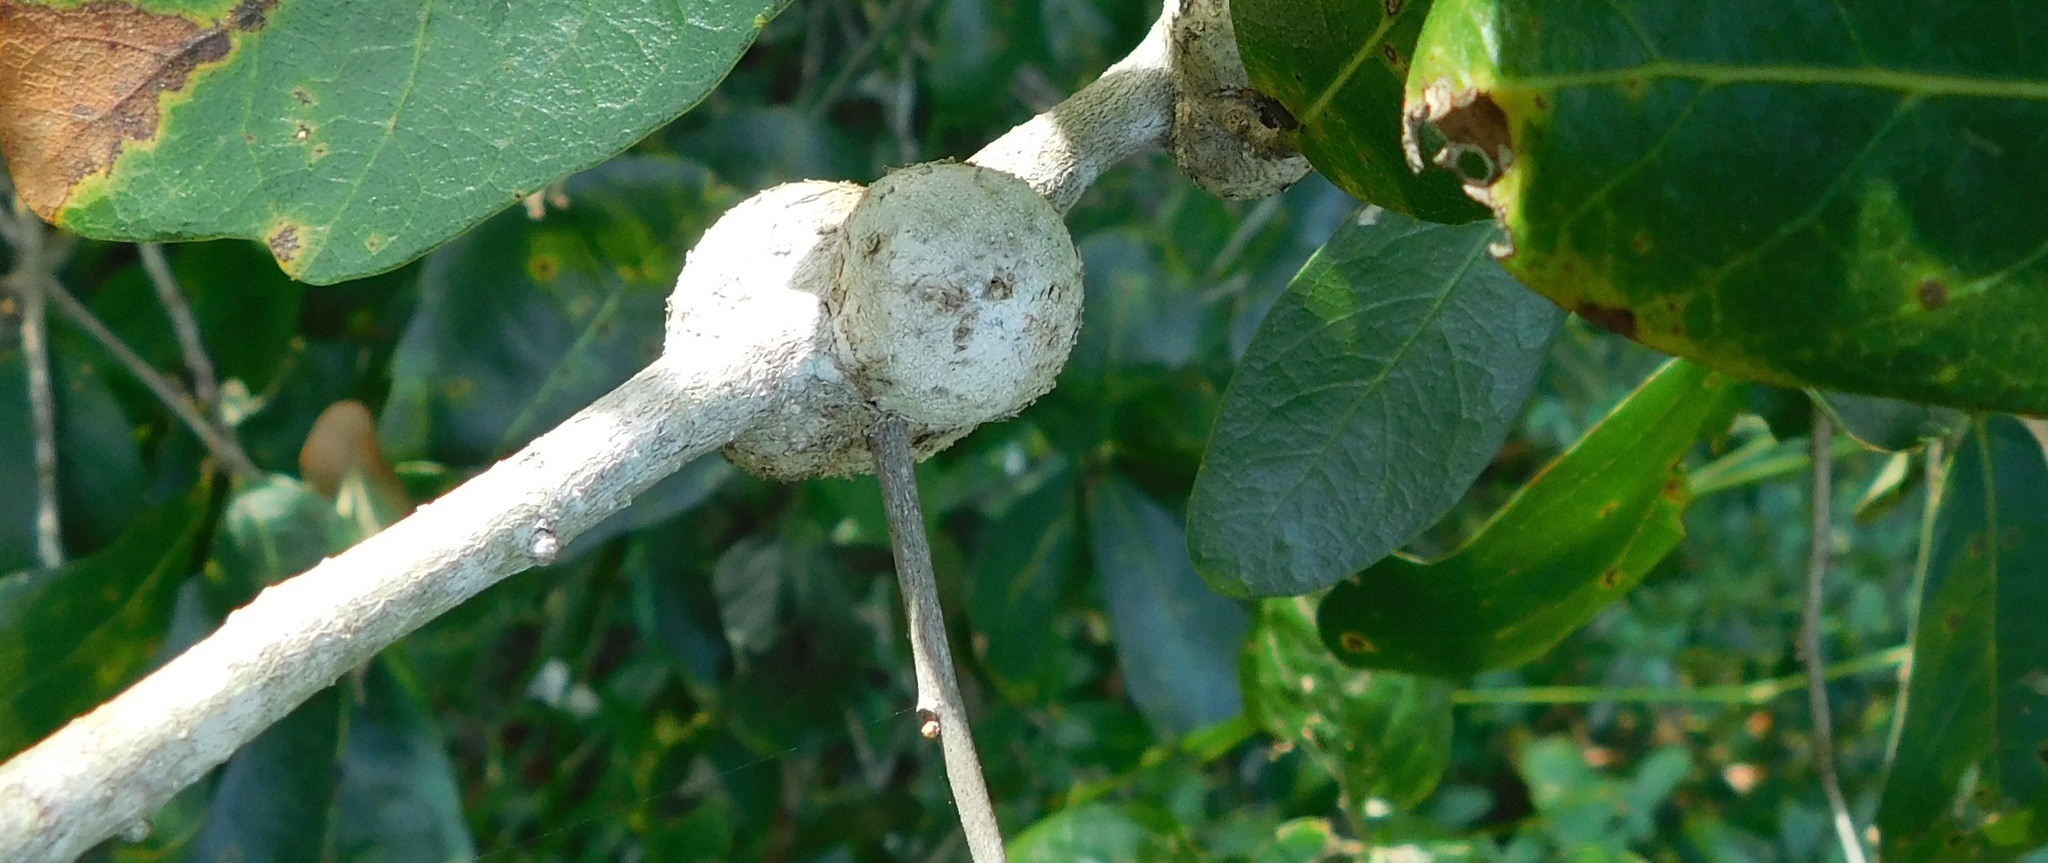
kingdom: Animalia
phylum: Arthropoda
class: Insecta
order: Hymenoptera
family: Cynipidae
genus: Callirhytis
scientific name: Callirhytis
